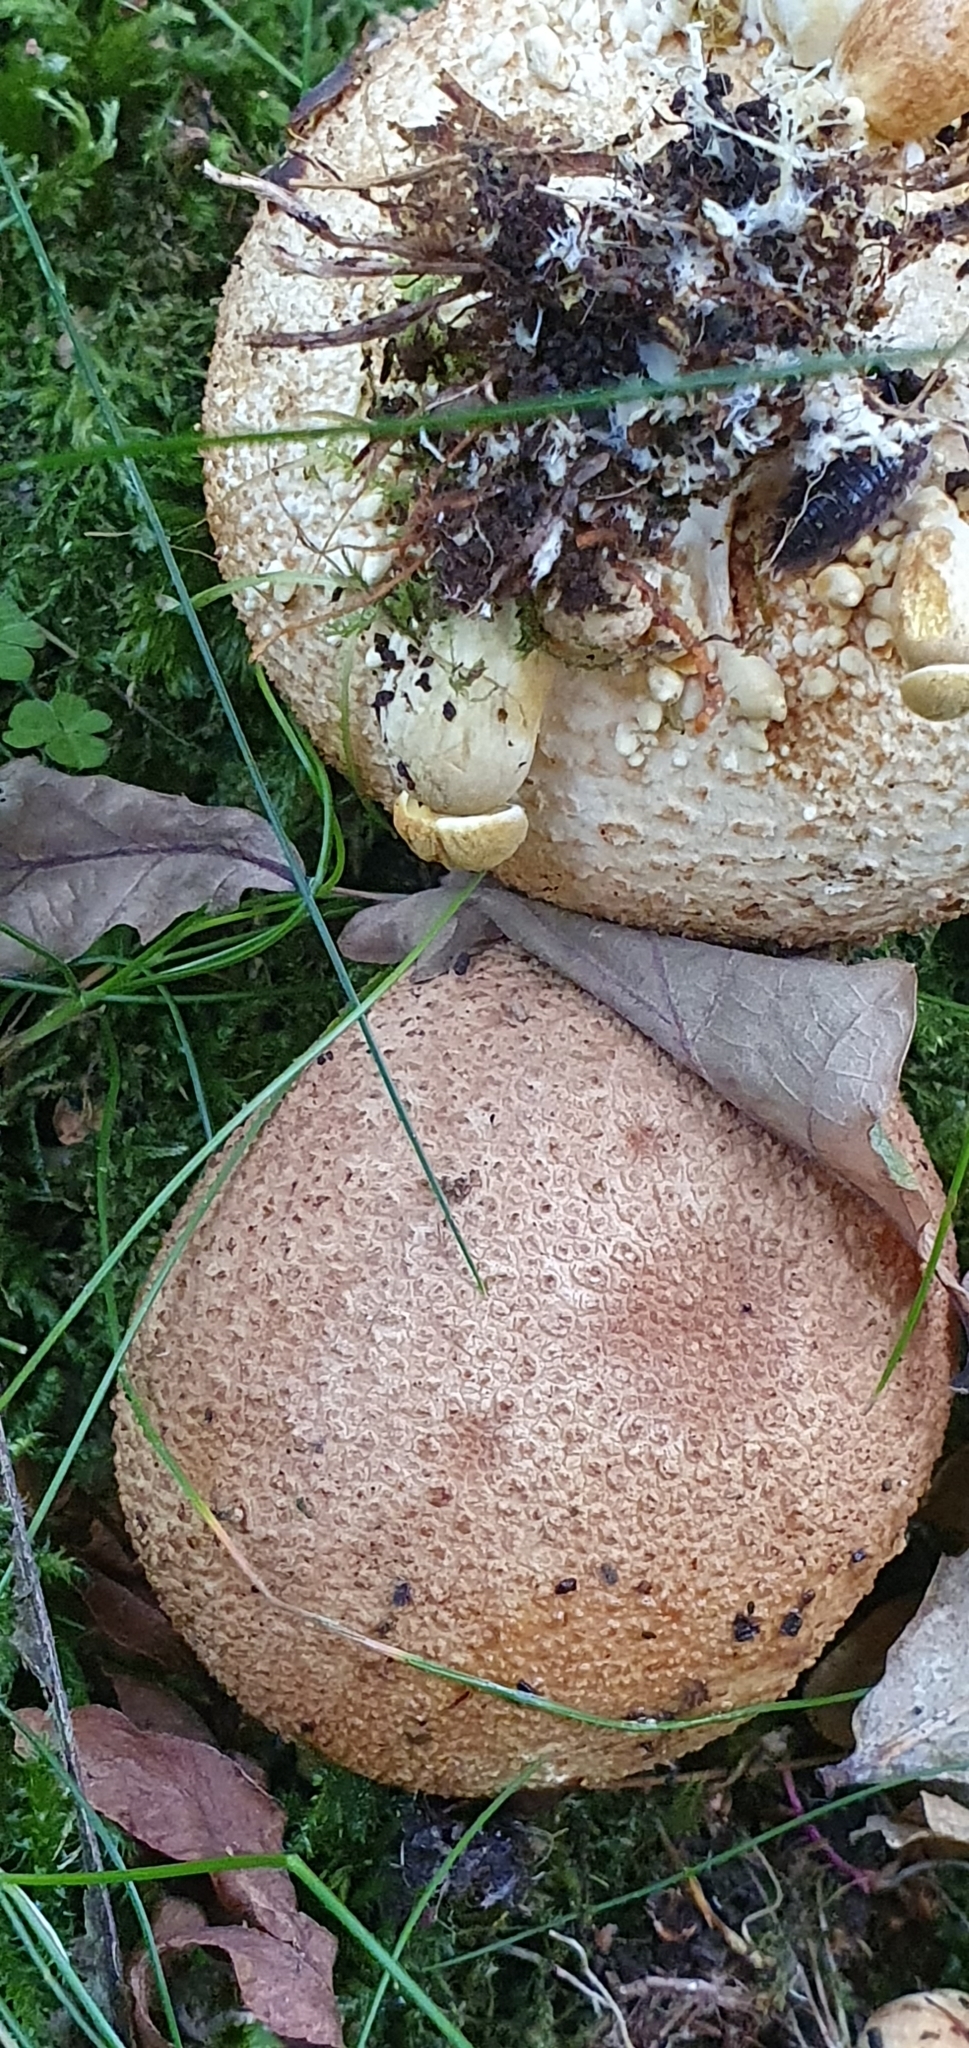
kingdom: Fungi
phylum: Basidiomycota
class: Agaricomycetes
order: Boletales
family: Sclerodermataceae
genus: Scleroderma
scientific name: Scleroderma citrinum
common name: Common earthball
